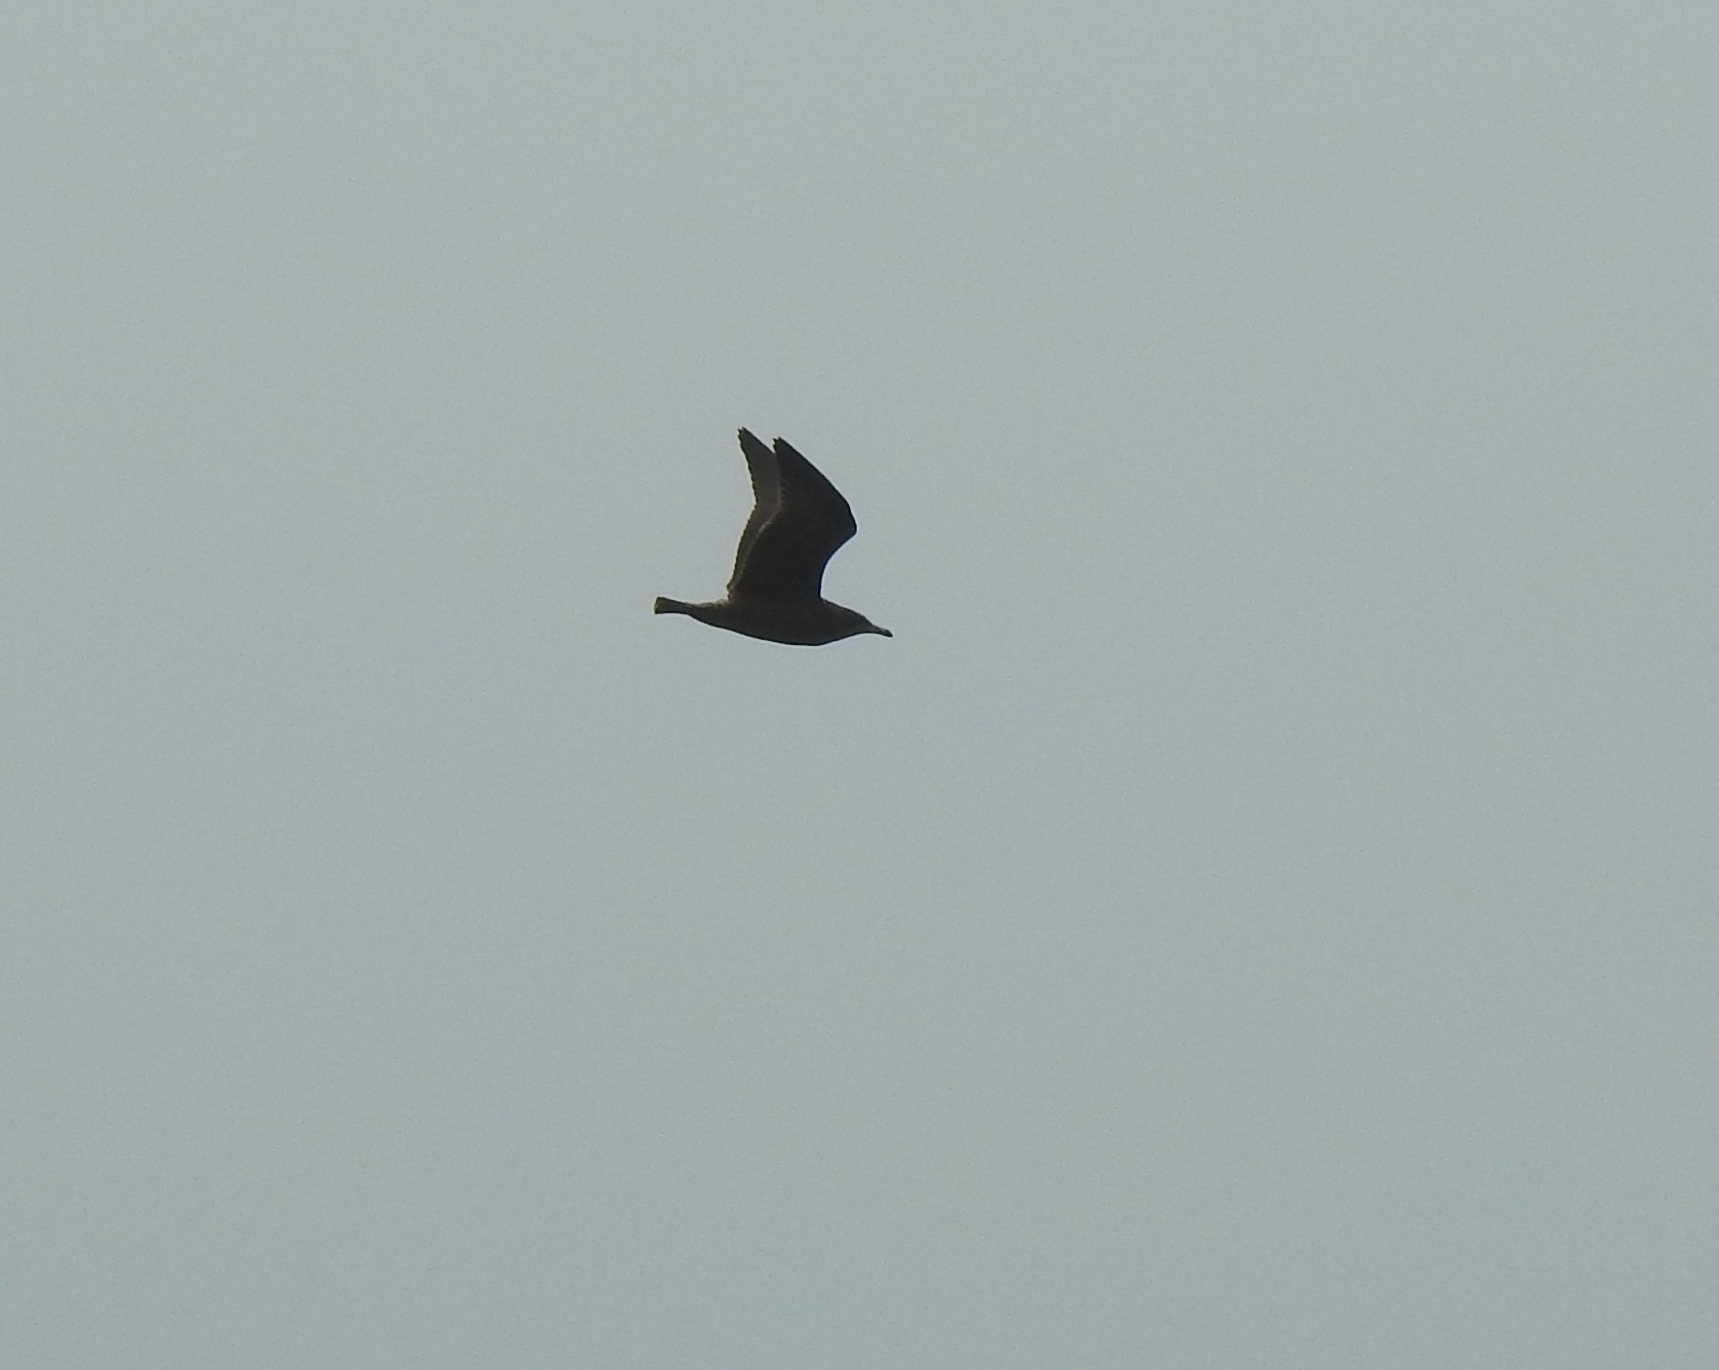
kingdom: Animalia
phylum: Chordata
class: Aves
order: Charadriiformes
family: Laridae
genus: Larus
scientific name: Larus heermanni
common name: Heermann's gull
